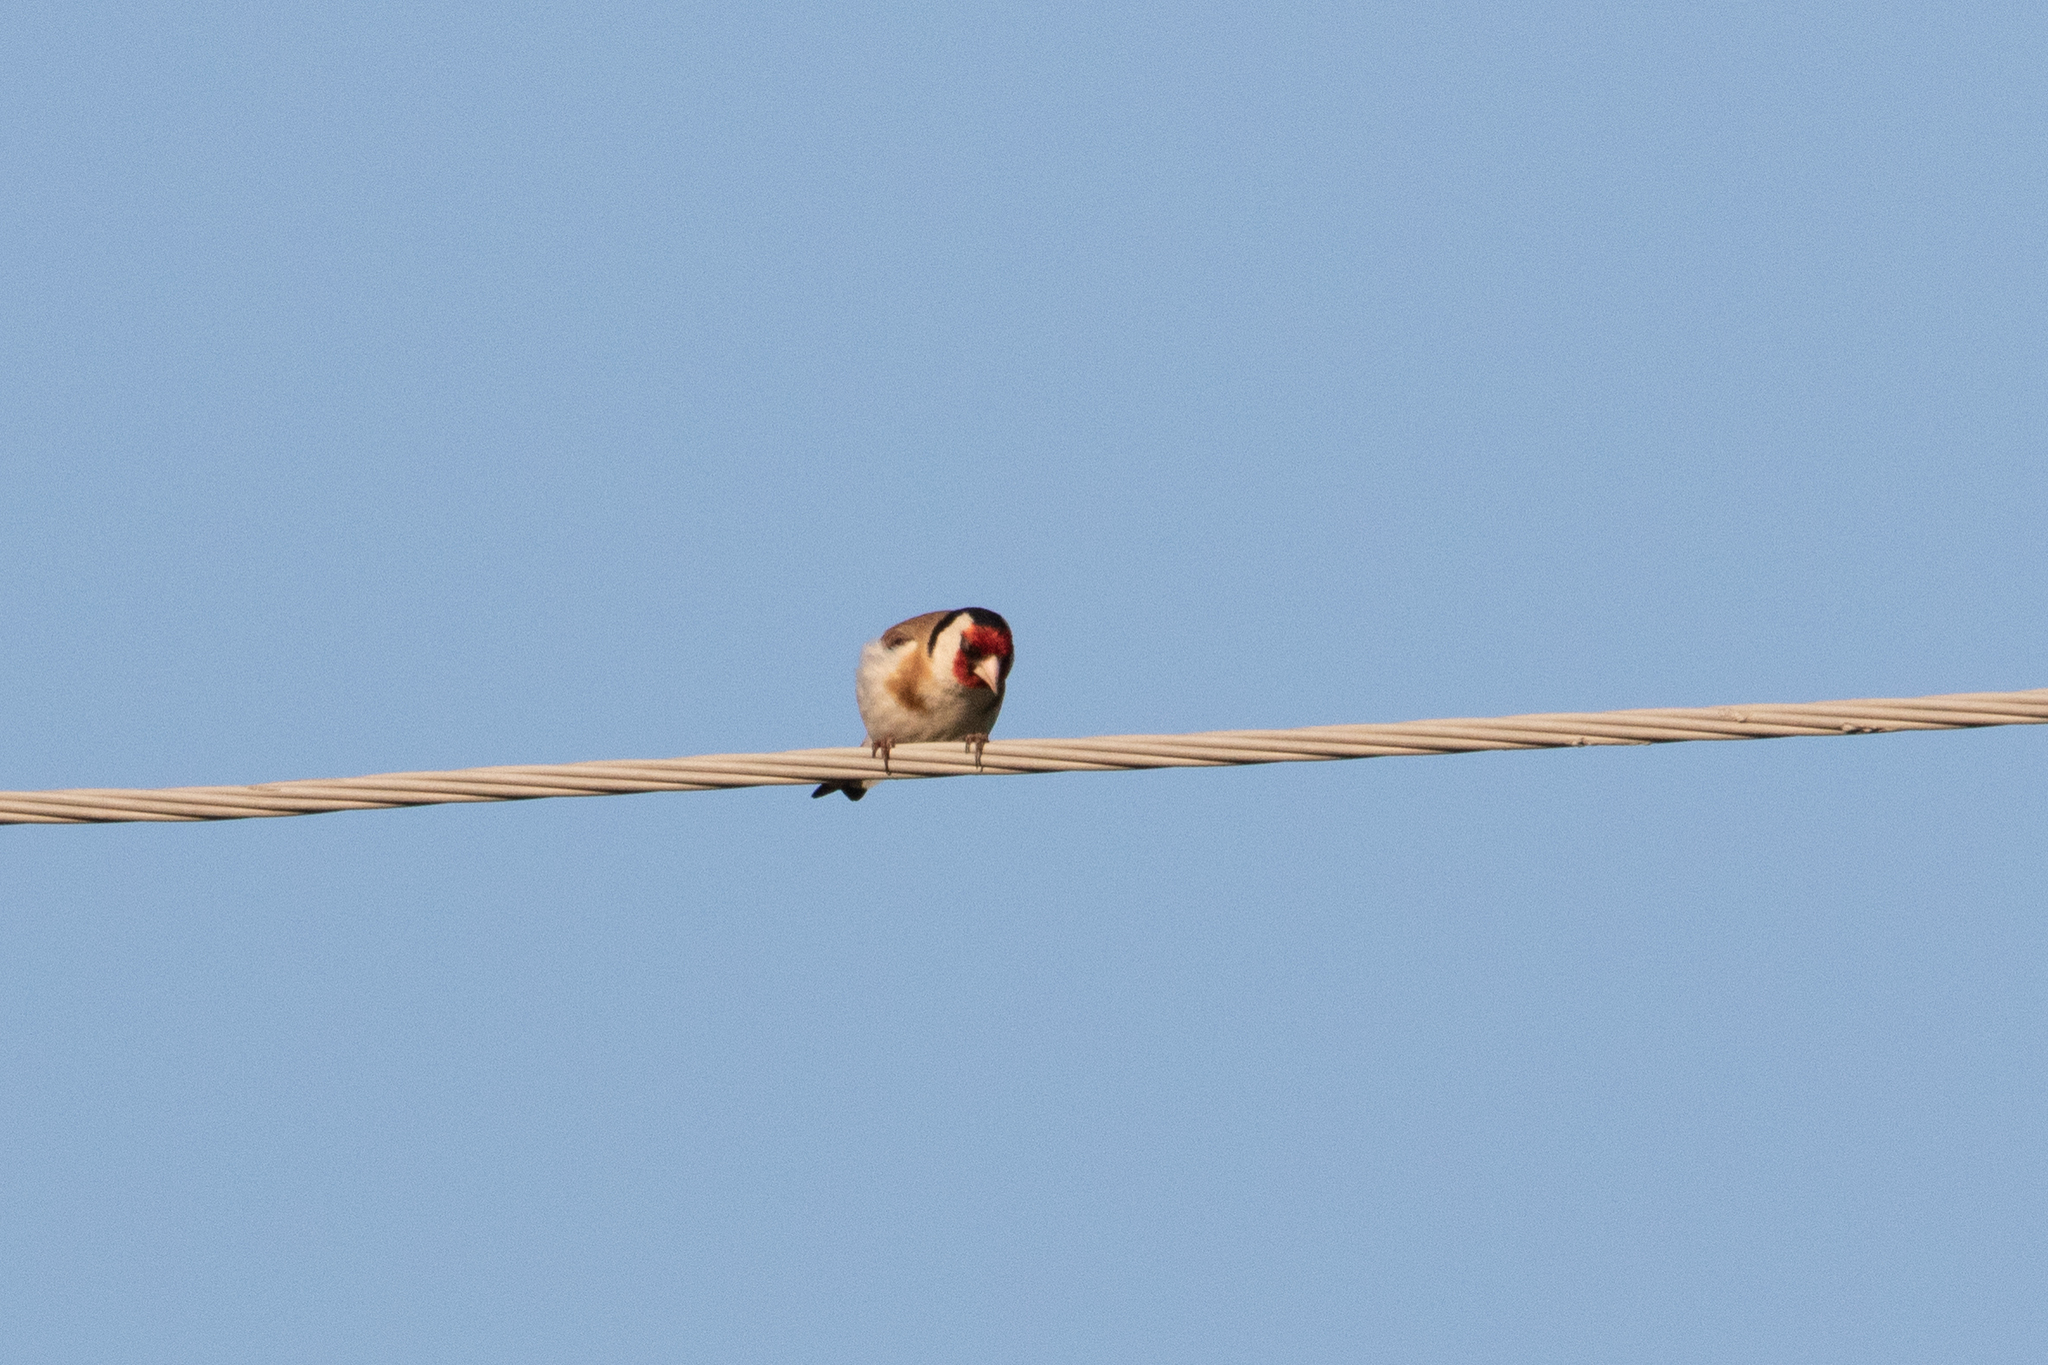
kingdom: Animalia
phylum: Chordata
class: Aves
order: Passeriformes
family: Fringillidae
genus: Carduelis
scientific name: Carduelis carduelis
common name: European goldfinch
